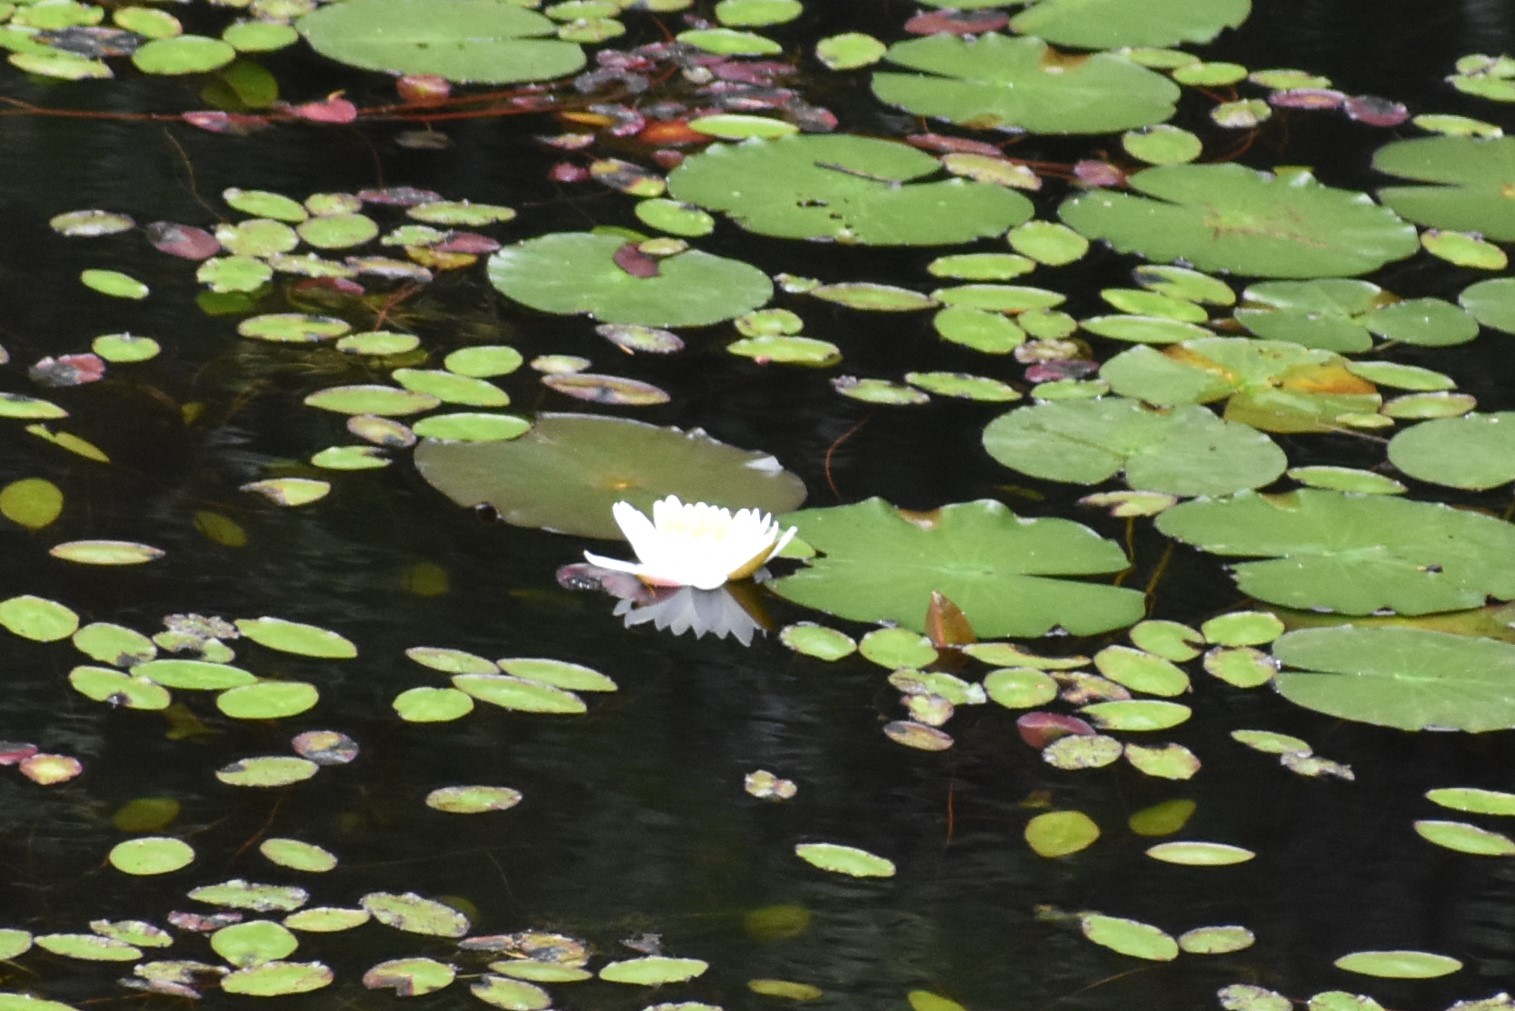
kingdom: Plantae
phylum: Tracheophyta
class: Magnoliopsida
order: Nymphaeales
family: Nymphaeaceae
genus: Nymphaea
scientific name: Nymphaea odorata
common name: Fragrant water-lily
